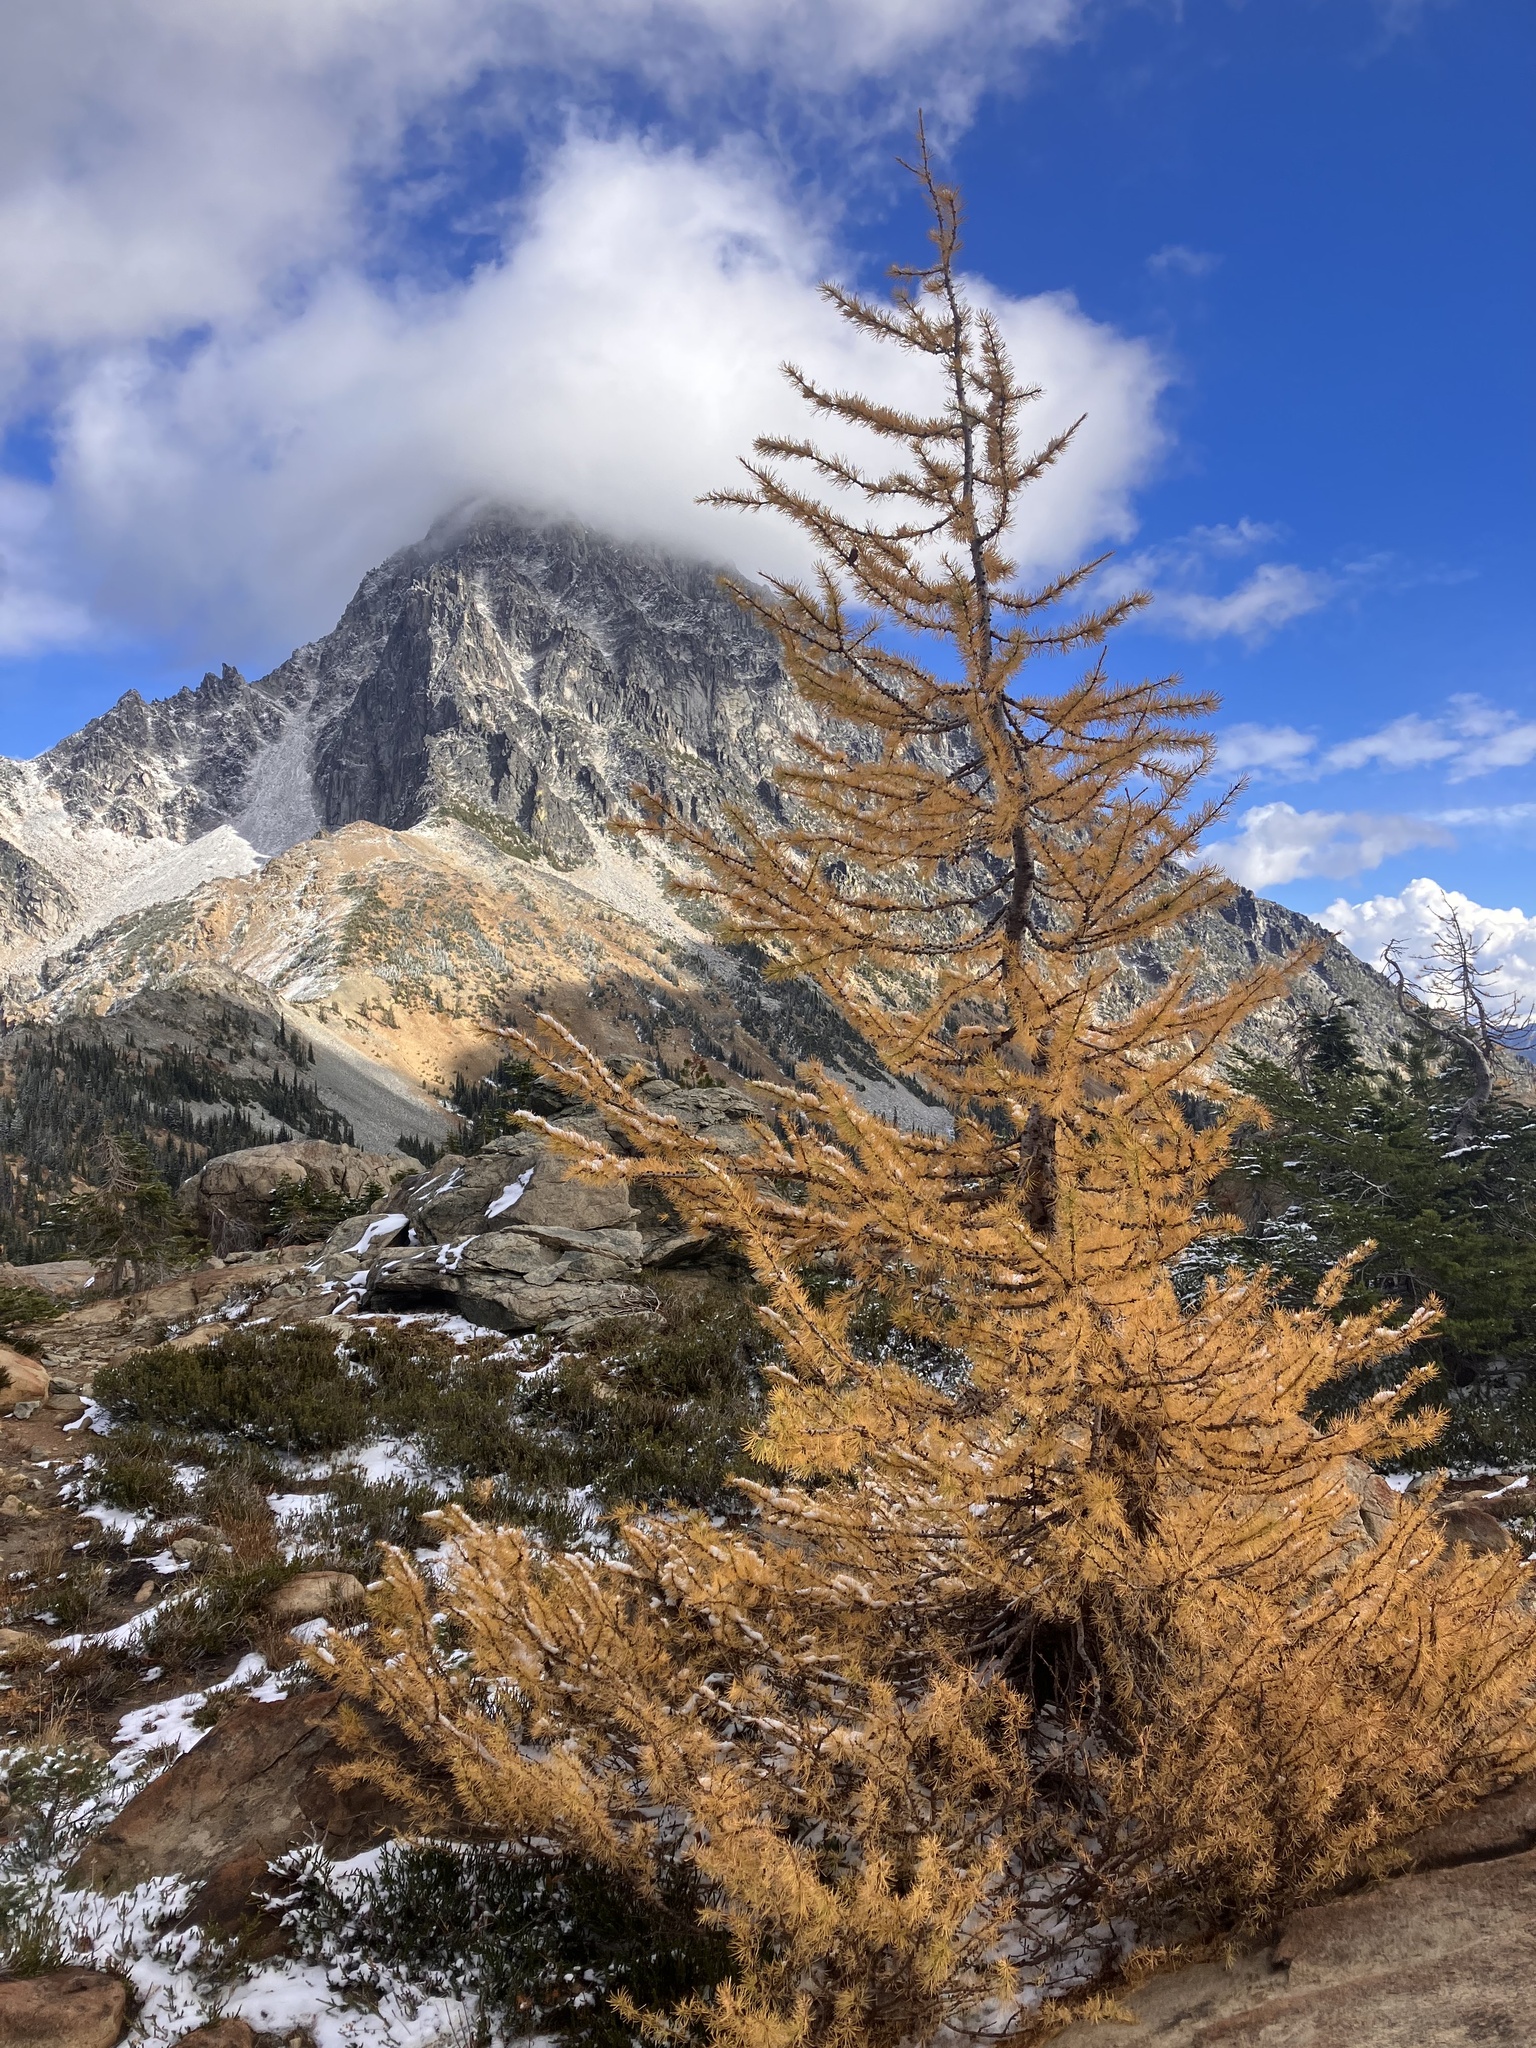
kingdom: Plantae
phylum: Tracheophyta
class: Pinopsida
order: Pinales
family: Pinaceae
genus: Larix
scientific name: Larix lyallii
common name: Alpine larch
